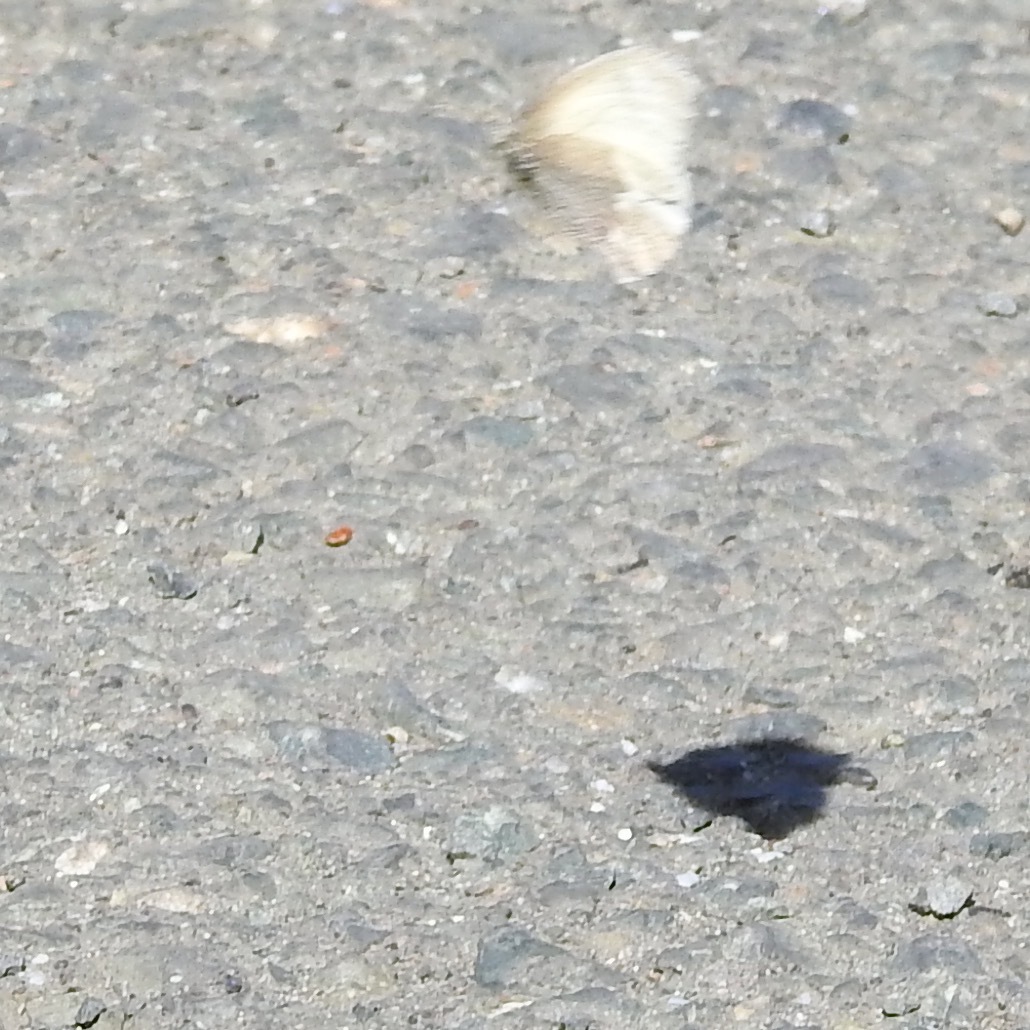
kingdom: Animalia
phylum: Arthropoda
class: Insecta
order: Lepidoptera
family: Nymphalidae
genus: Coenonympha
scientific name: Coenonympha california
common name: Common ringlet
